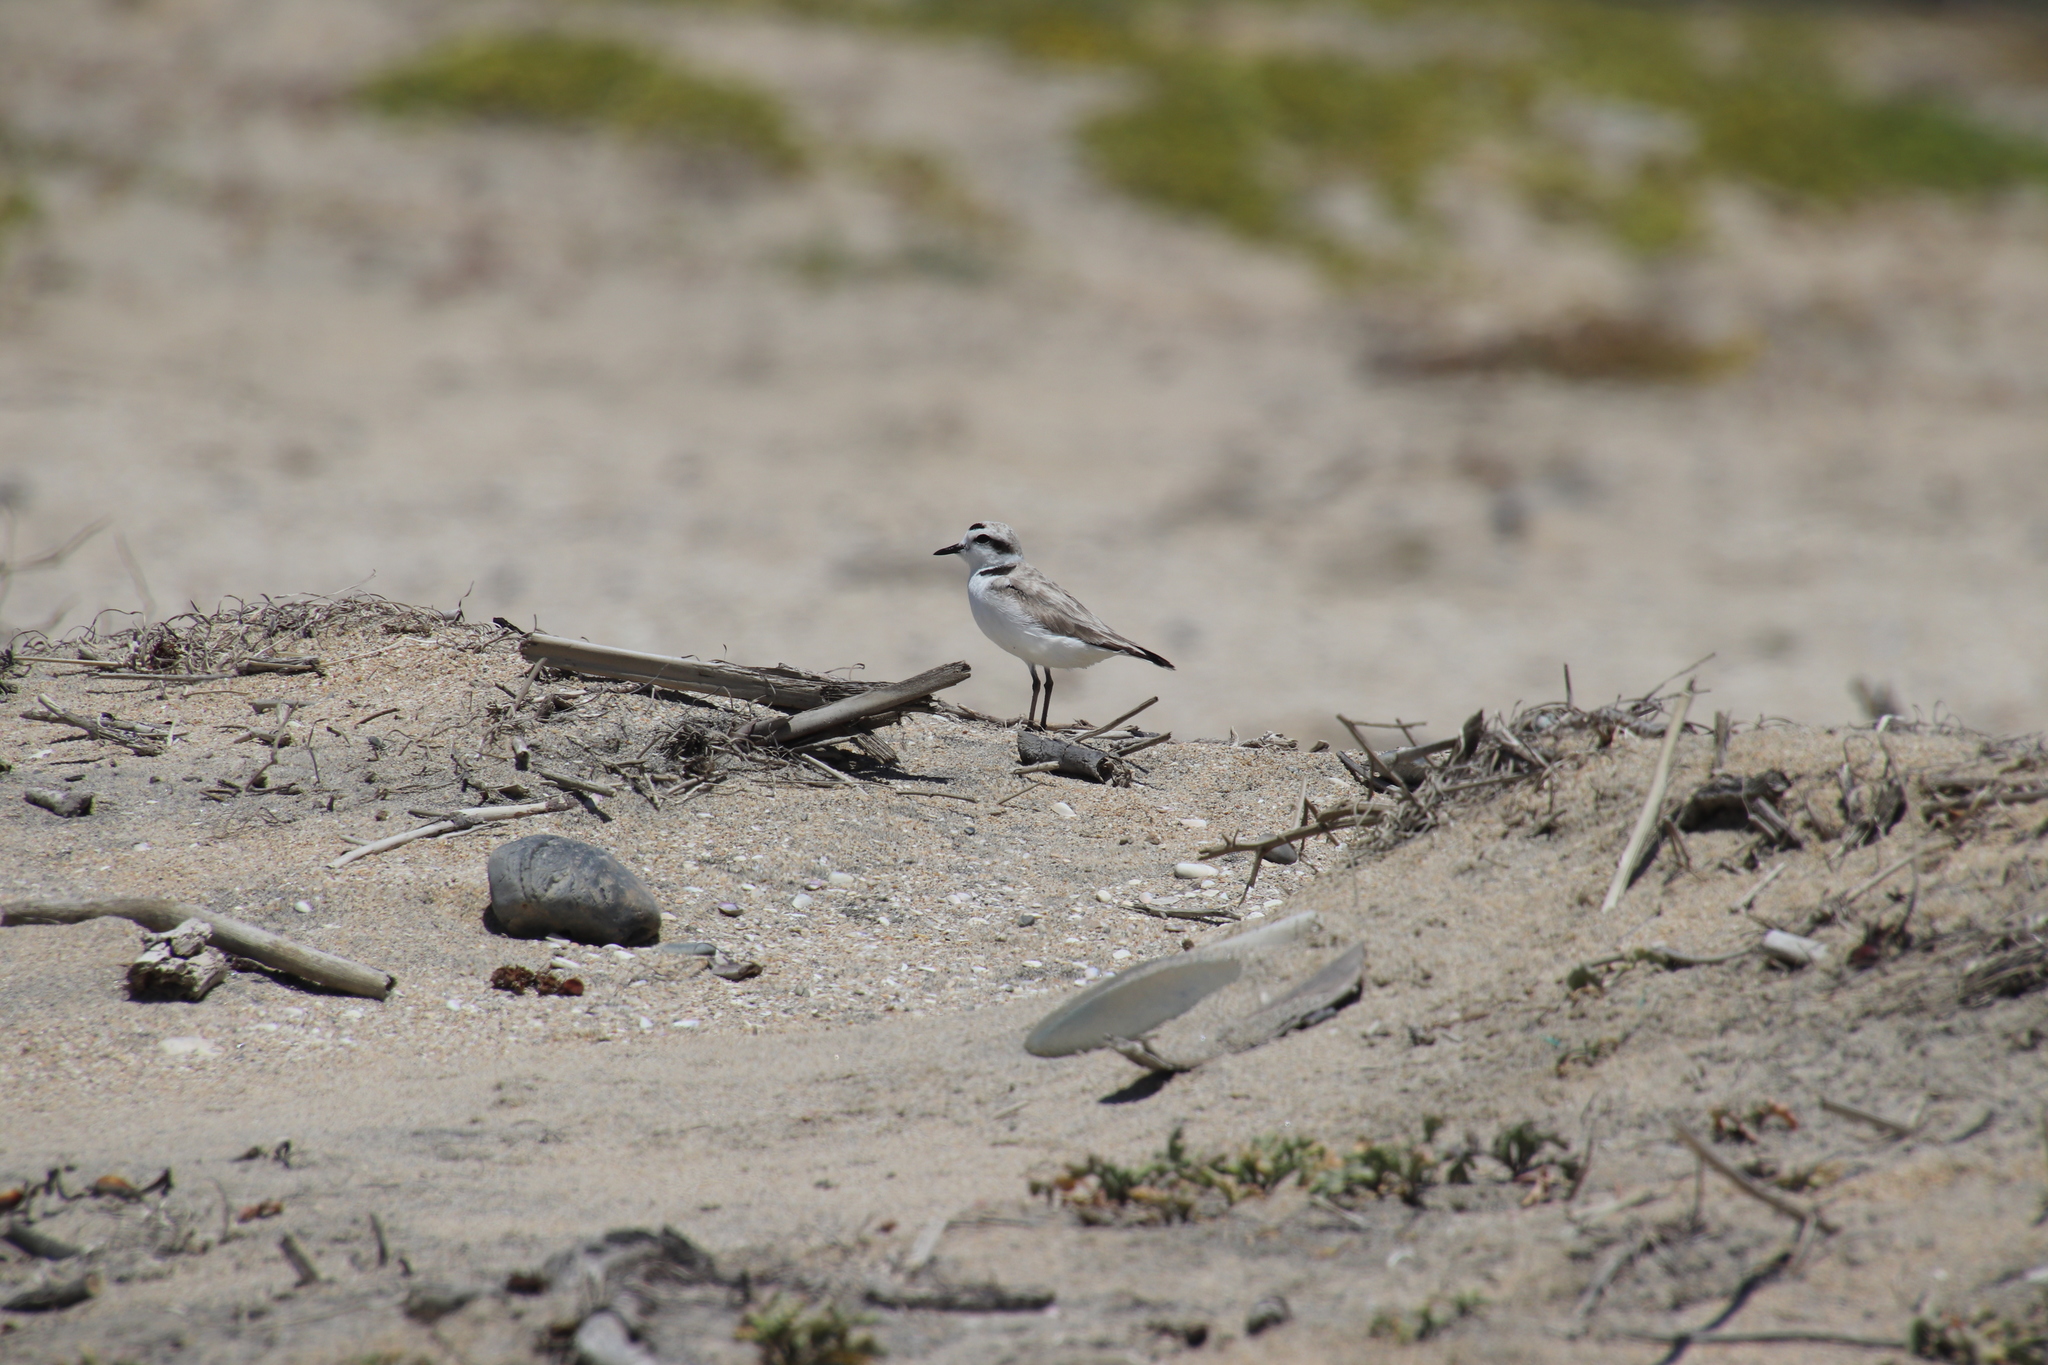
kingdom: Animalia
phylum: Chordata
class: Aves
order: Charadriiformes
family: Charadriidae
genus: Anarhynchus
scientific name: Anarhynchus
